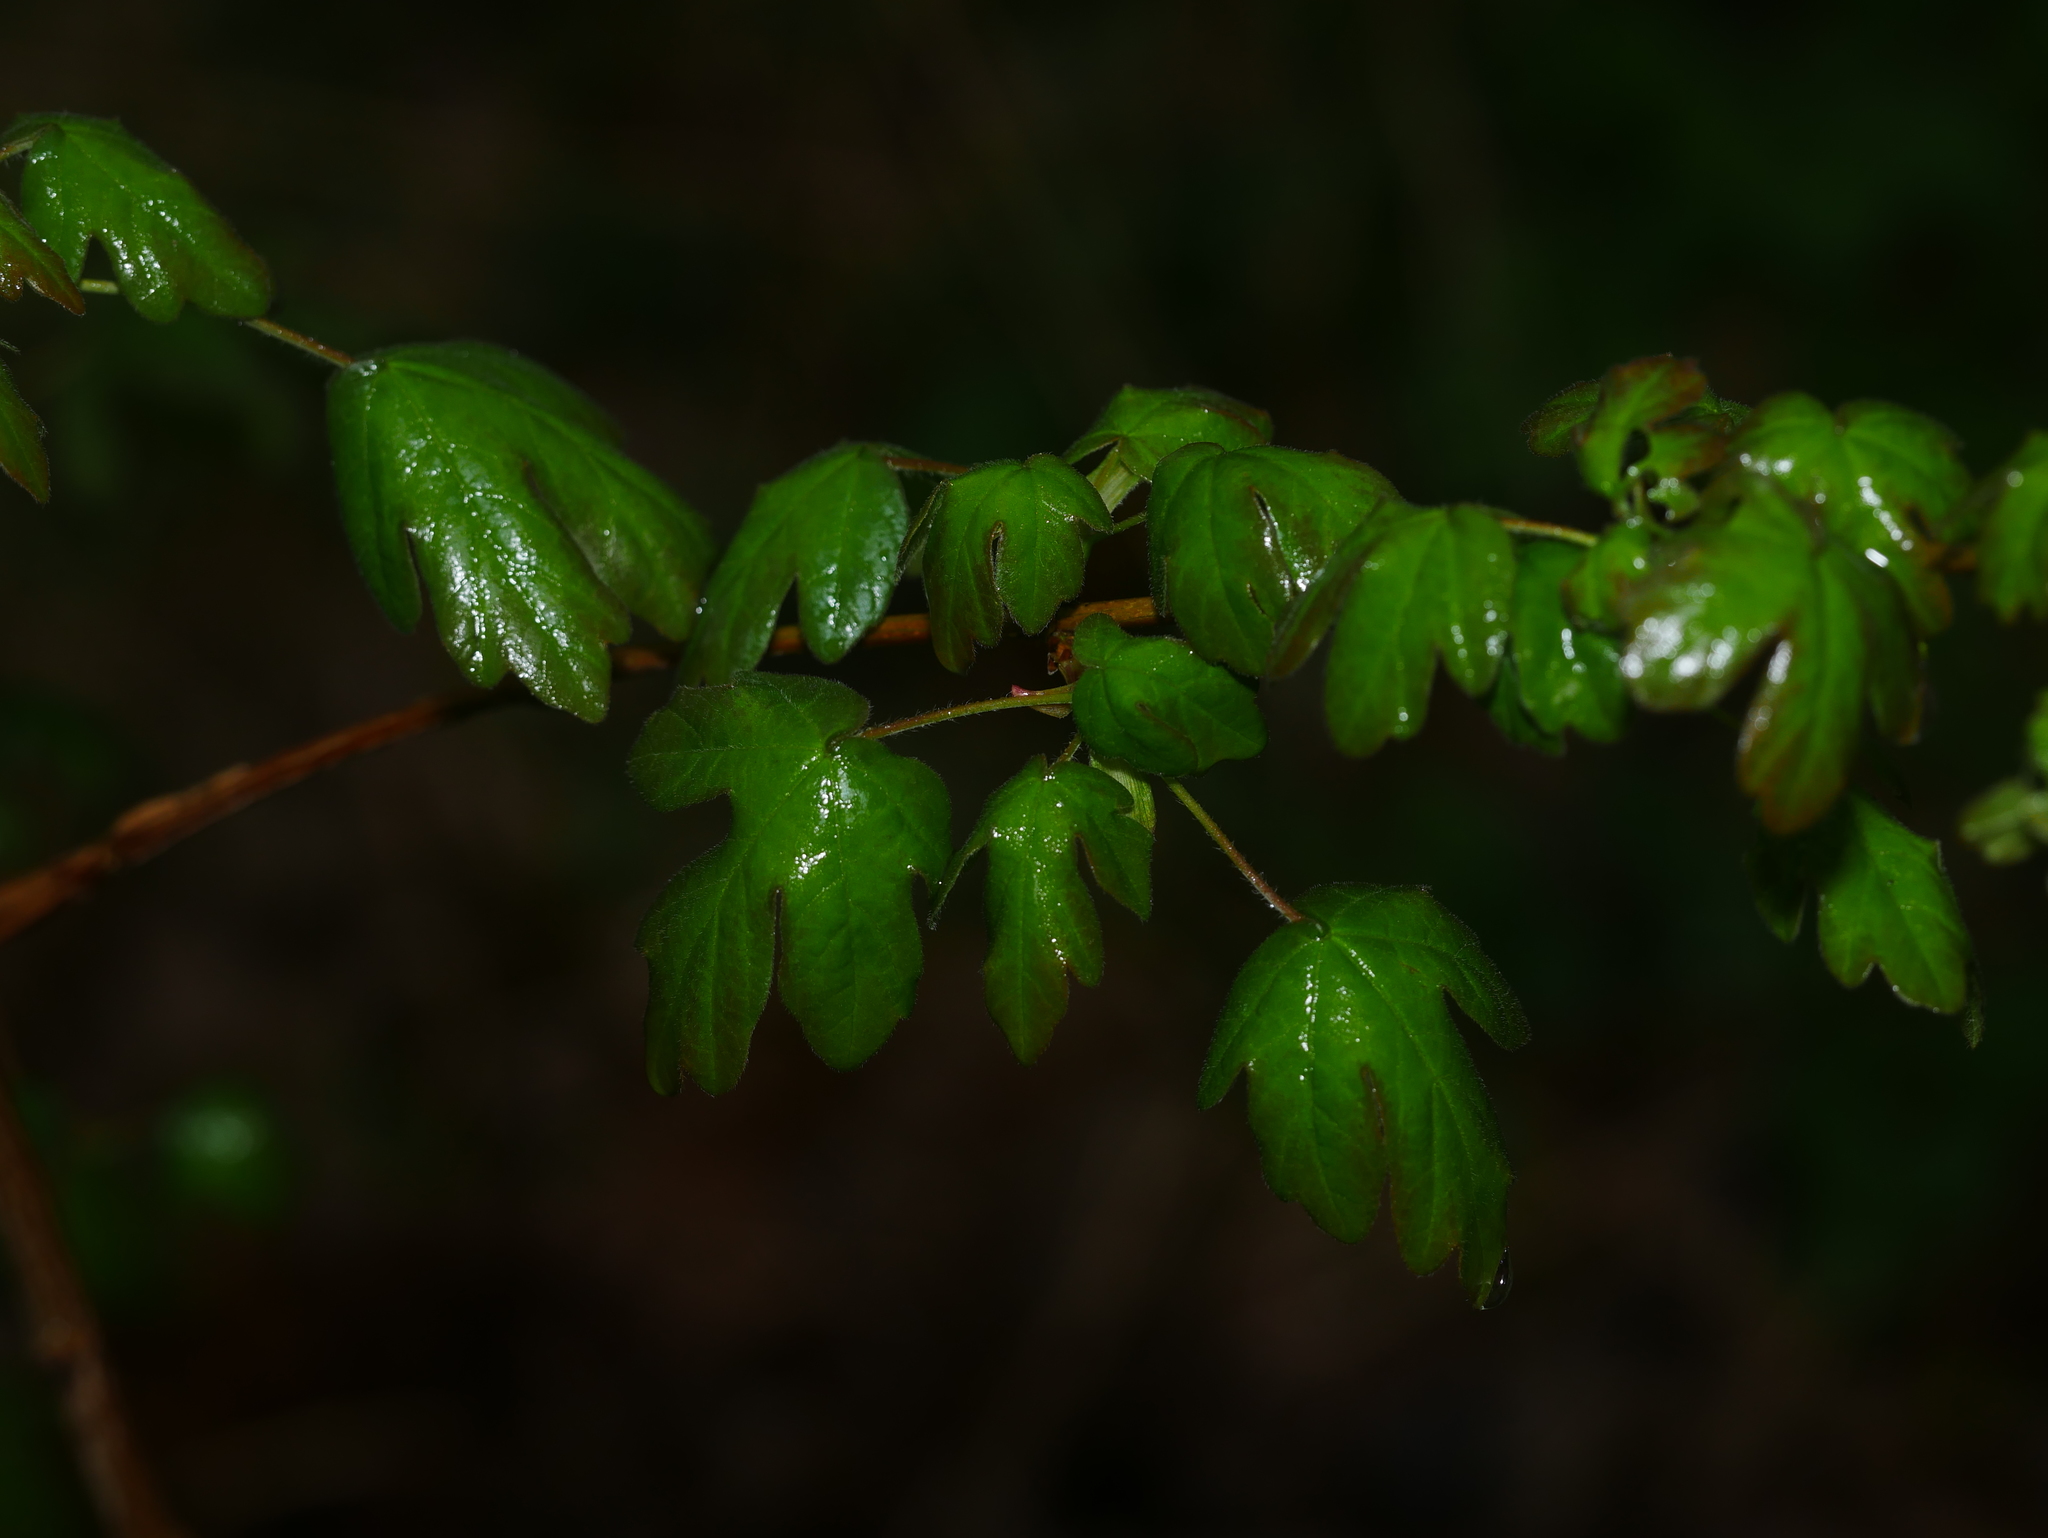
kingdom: Plantae
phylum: Tracheophyta
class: Magnoliopsida
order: Sapindales
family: Sapindaceae
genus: Acer
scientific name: Acer campestre
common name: Field maple
